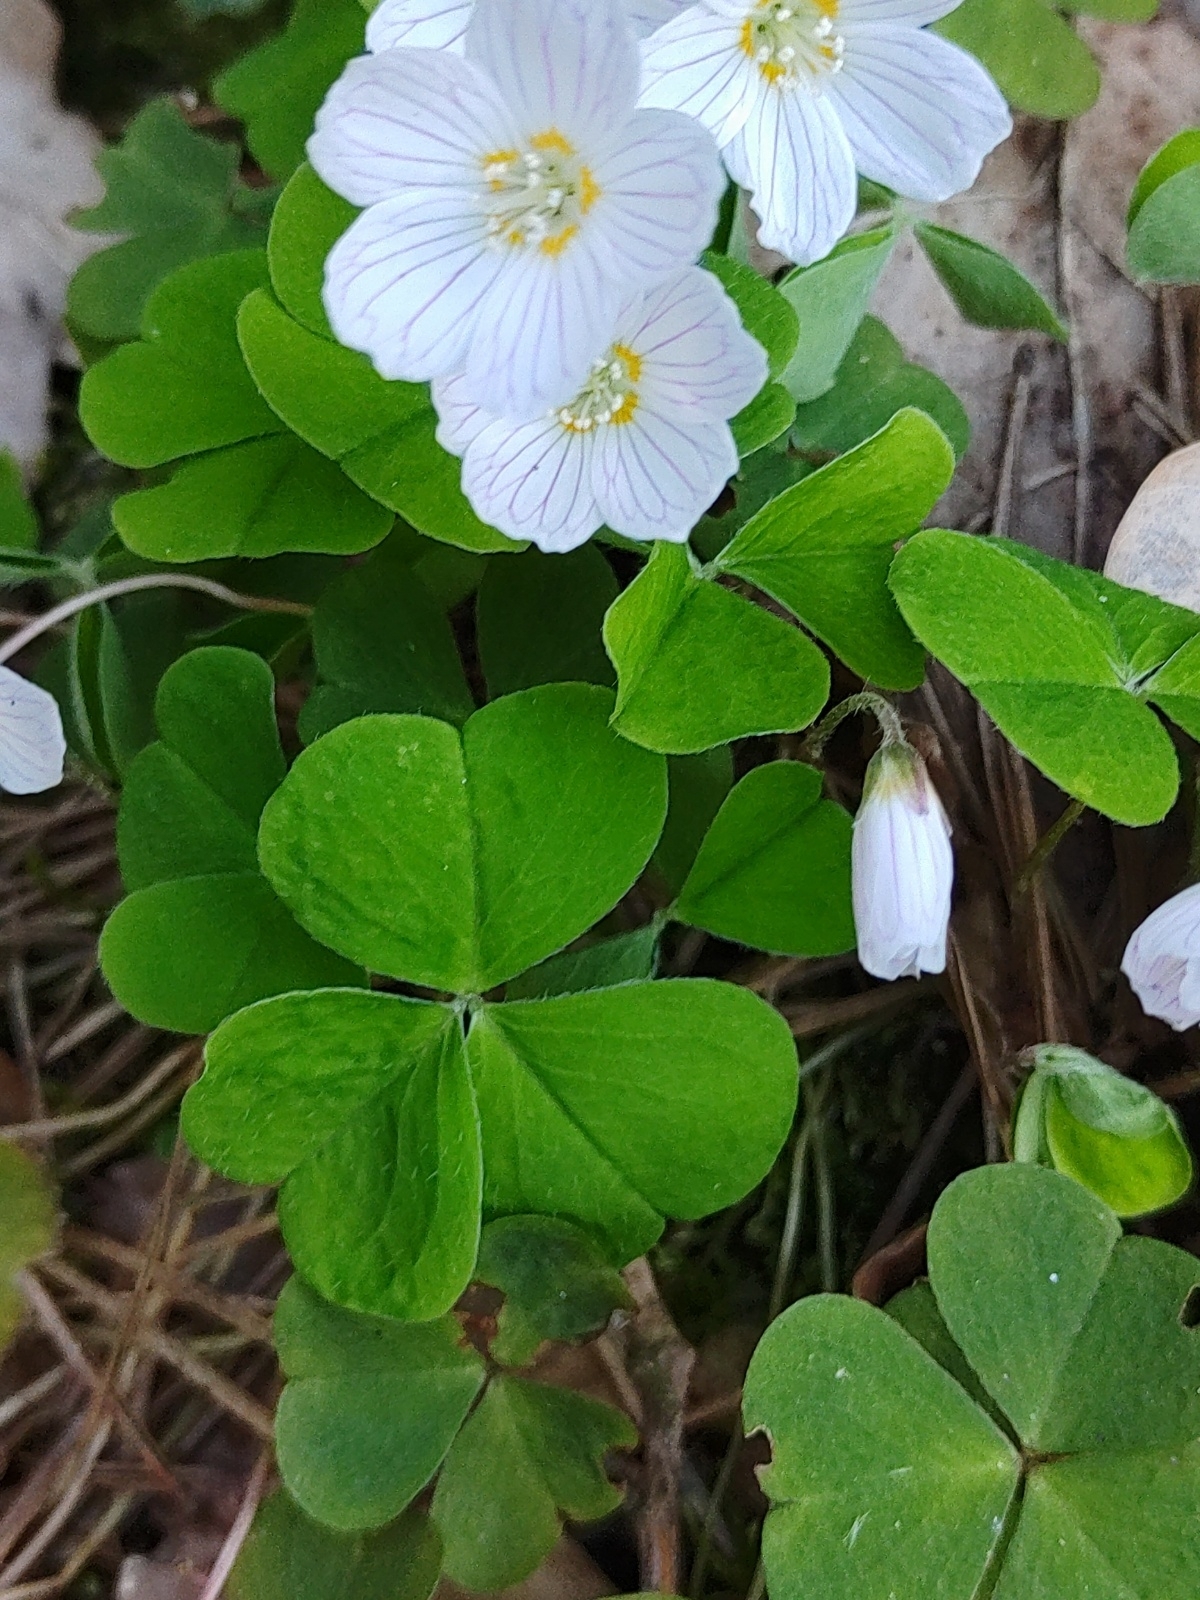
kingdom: Plantae
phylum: Tracheophyta
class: Magnoliopsida
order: Oxalidales
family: Oxalidaceae
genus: Oxalis
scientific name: Oxalis acetosella
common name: Wood-sorrel
